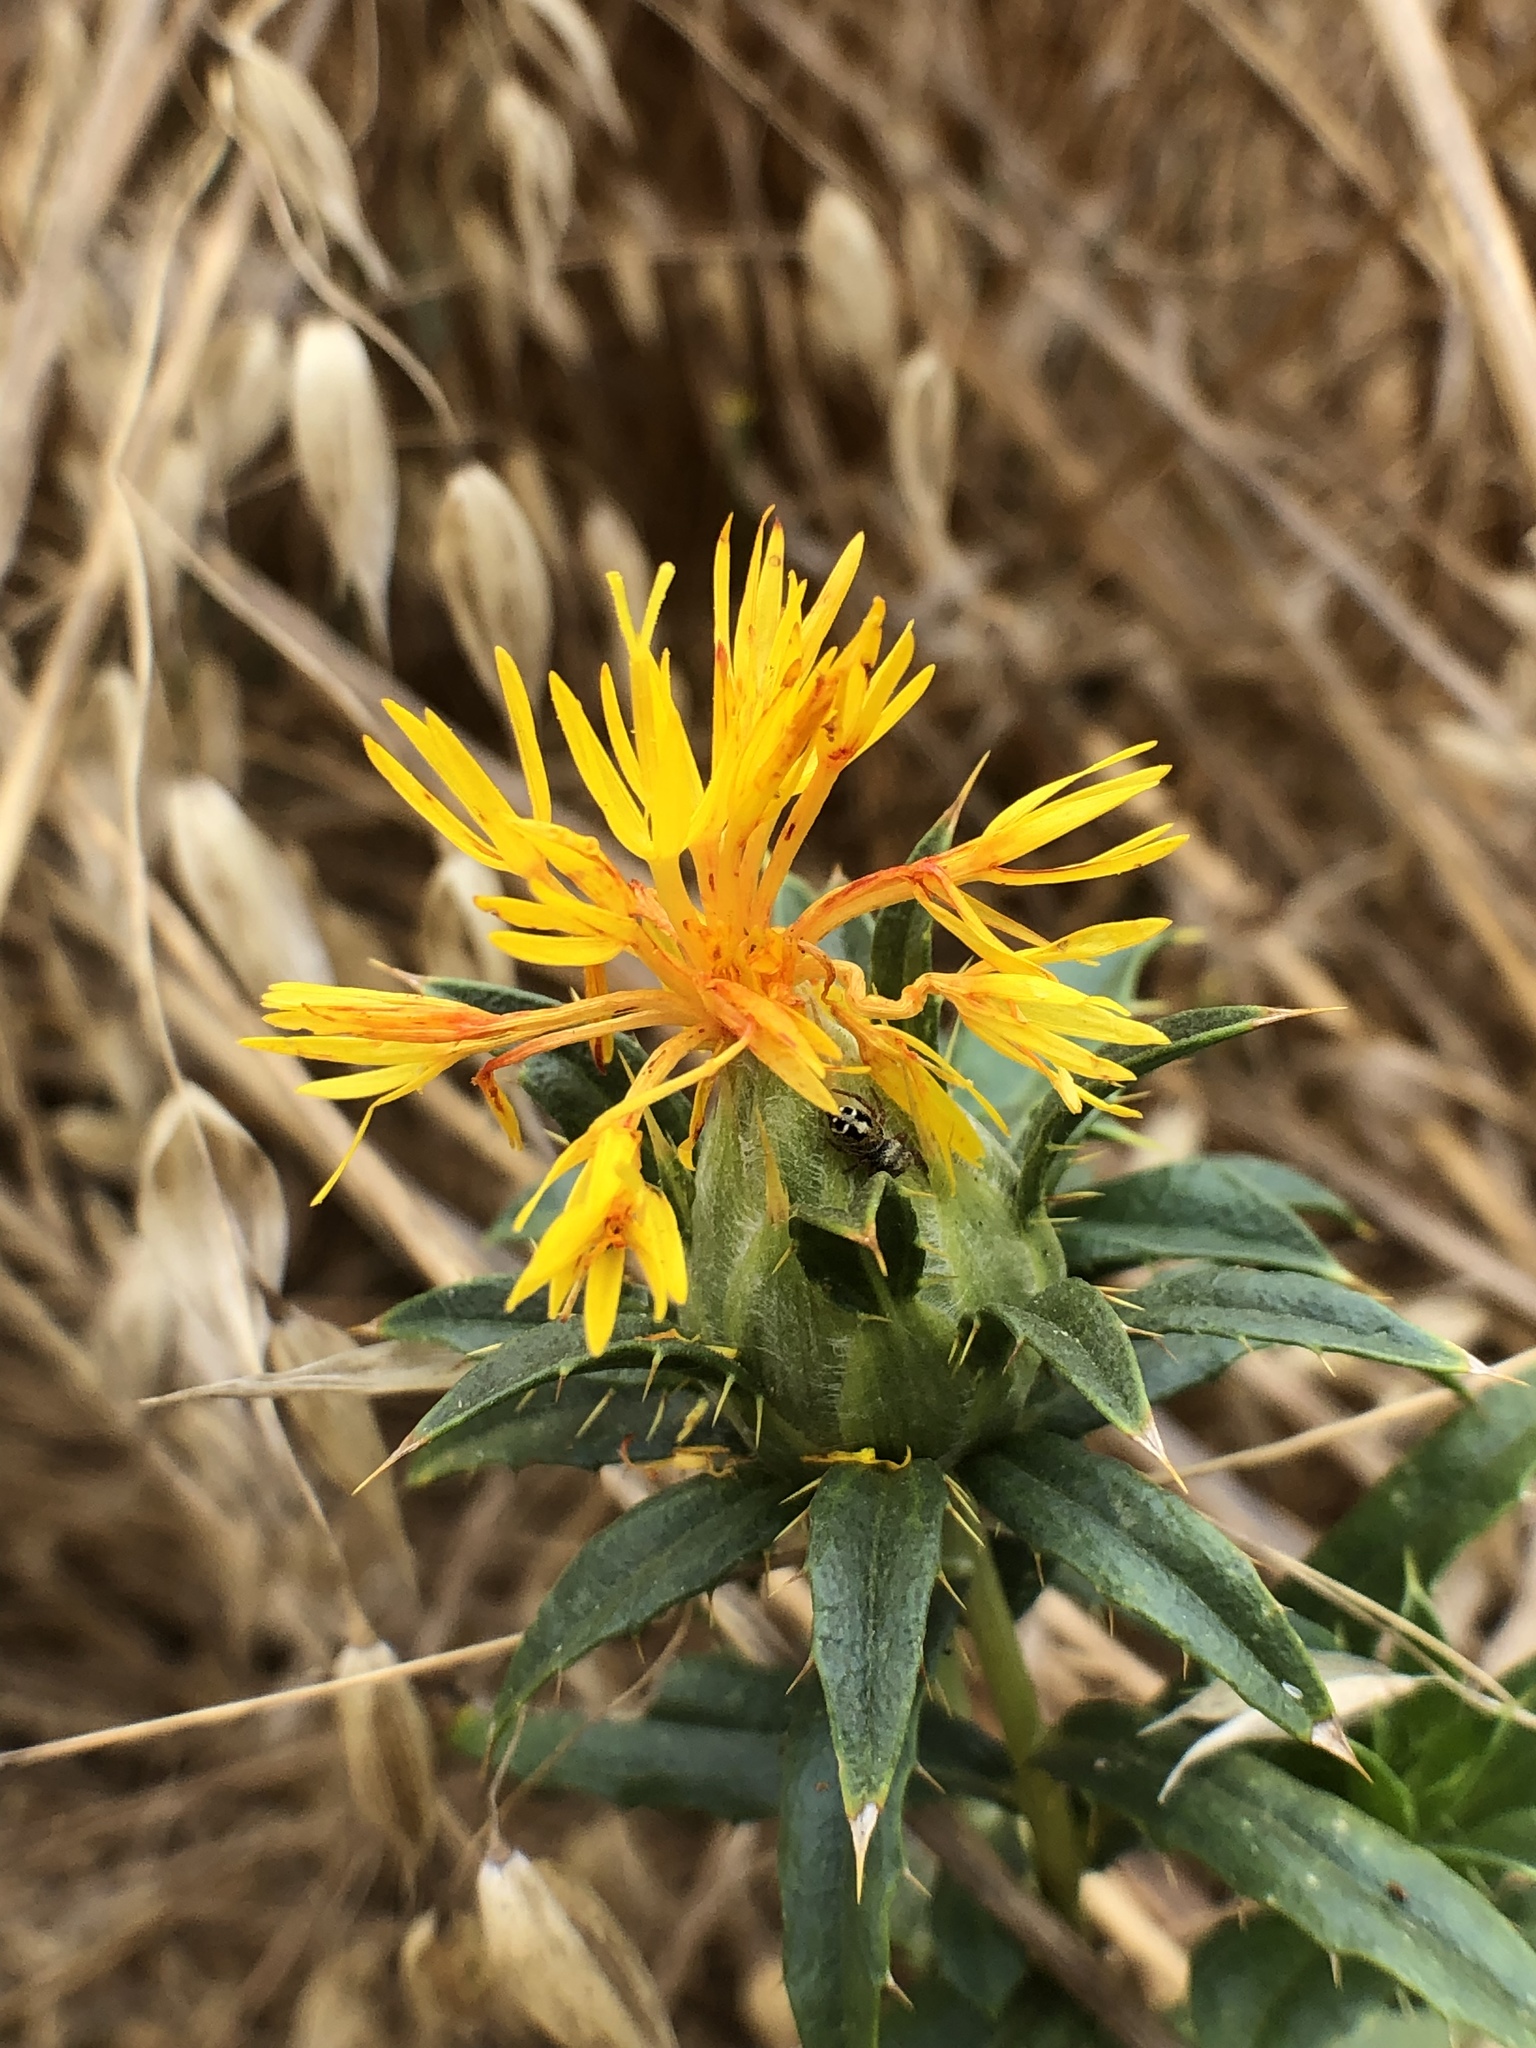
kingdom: Plantae
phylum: Tracheophyta
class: Magnoliopsida
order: Asterales
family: Asteraceae
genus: Carthamus
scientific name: Carthamus tinctorius
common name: Safflower
